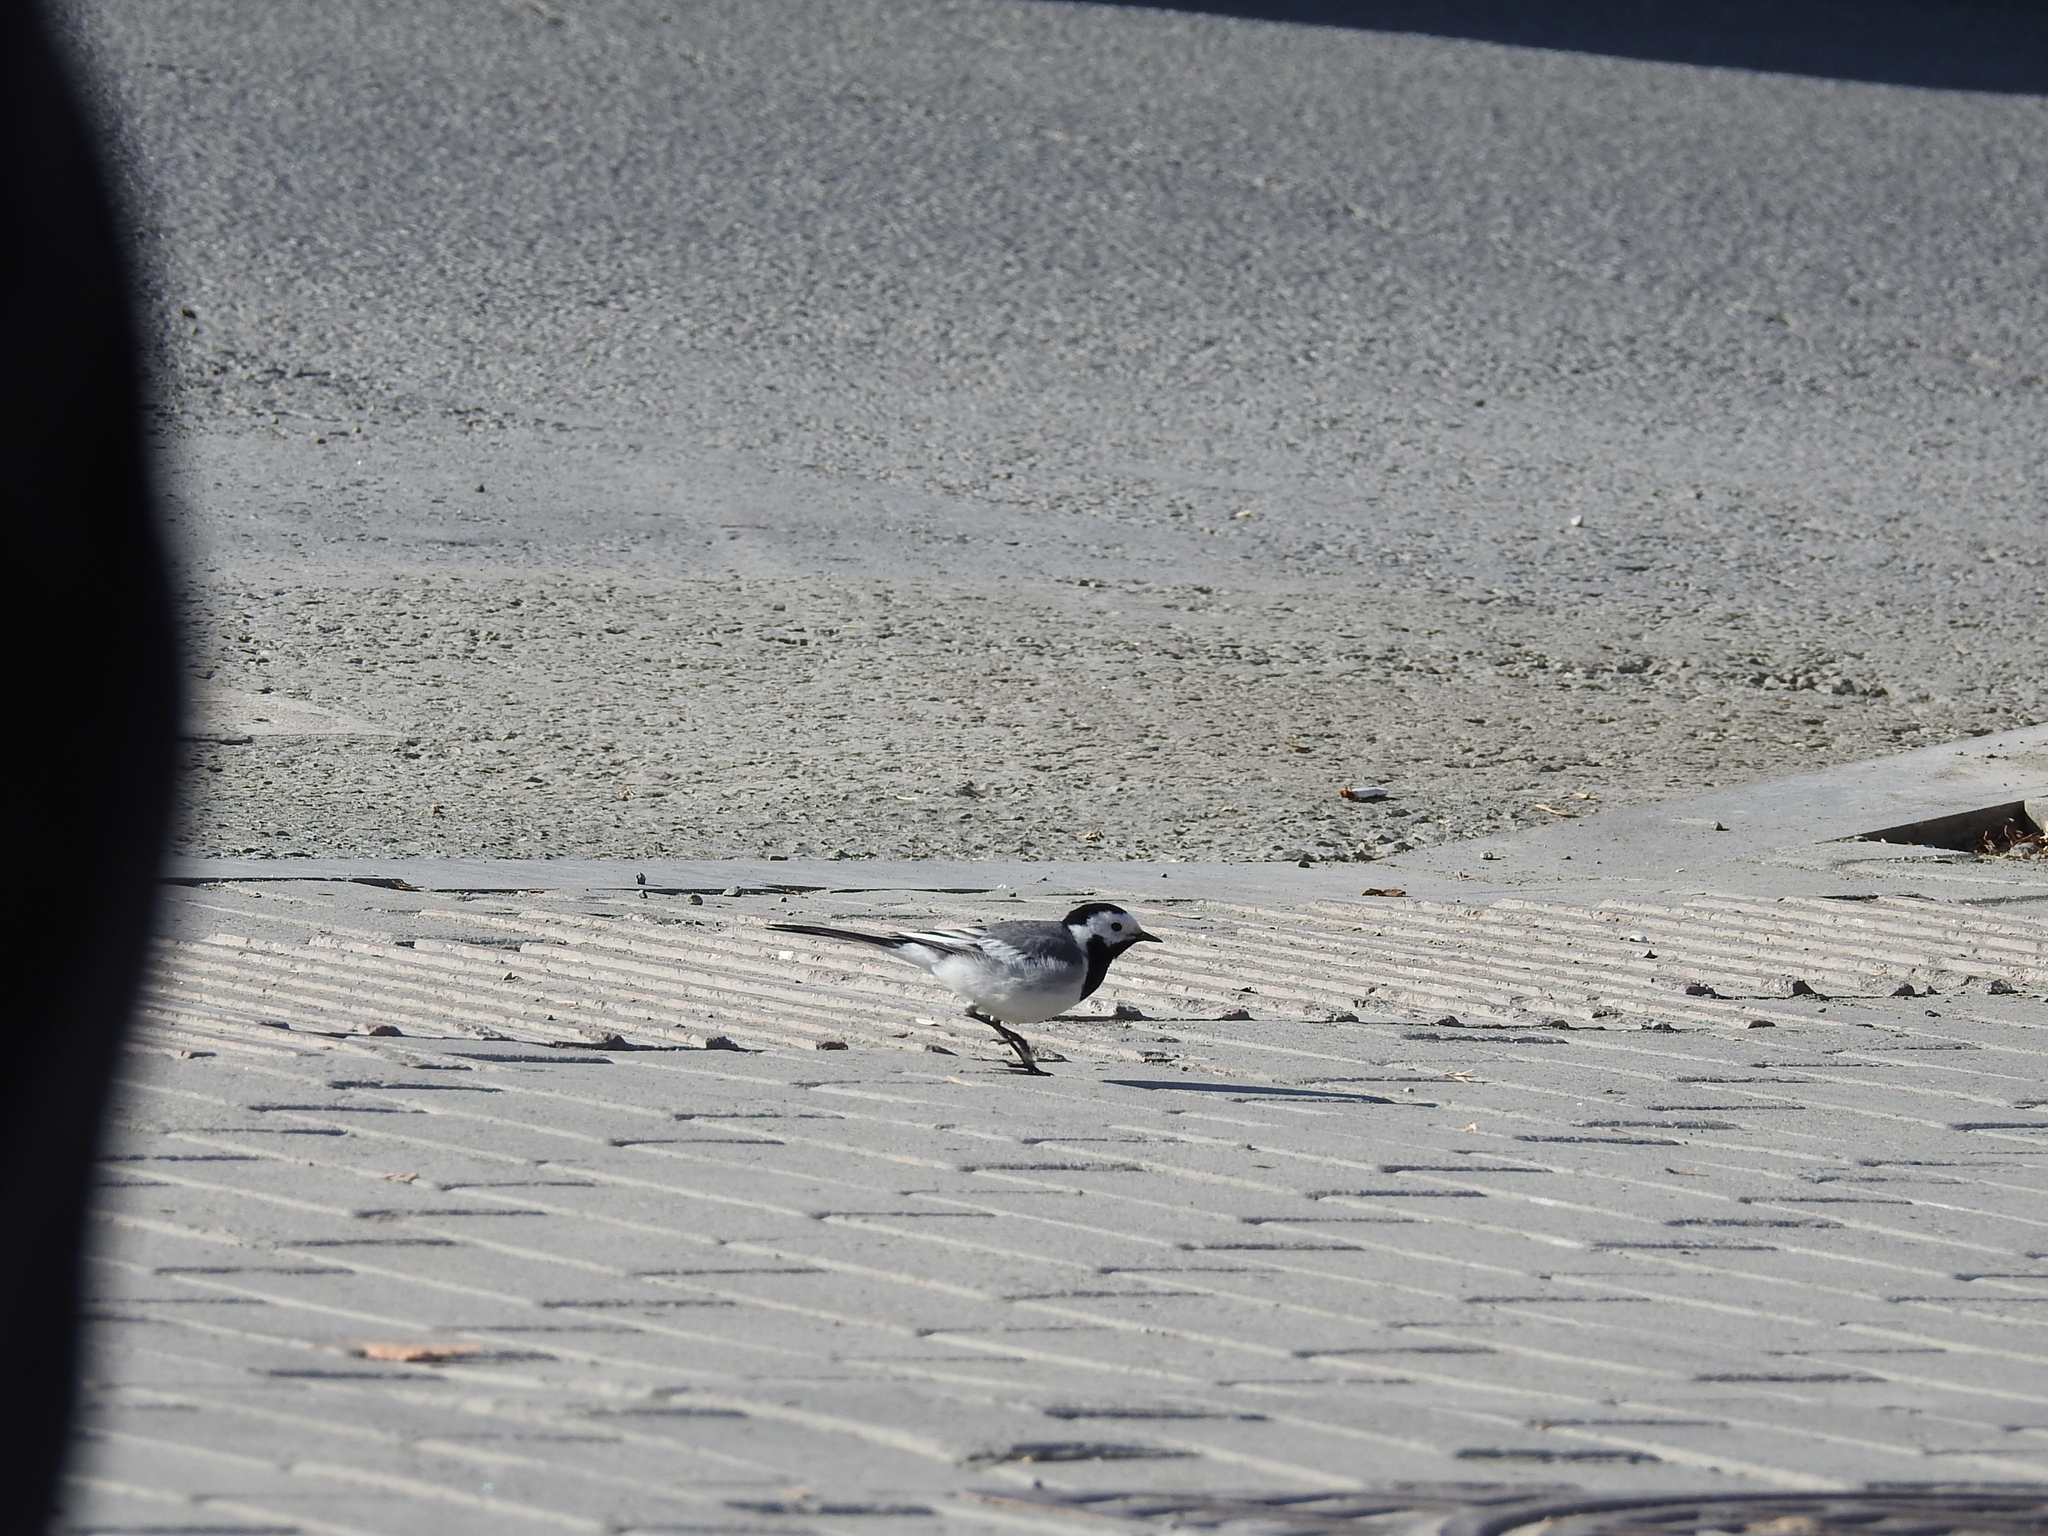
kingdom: Animalia
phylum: Chordata
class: Aves
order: Passeriformes
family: Motacillidae
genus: Motacilla
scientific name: Motacilla alba
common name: White wagtail
